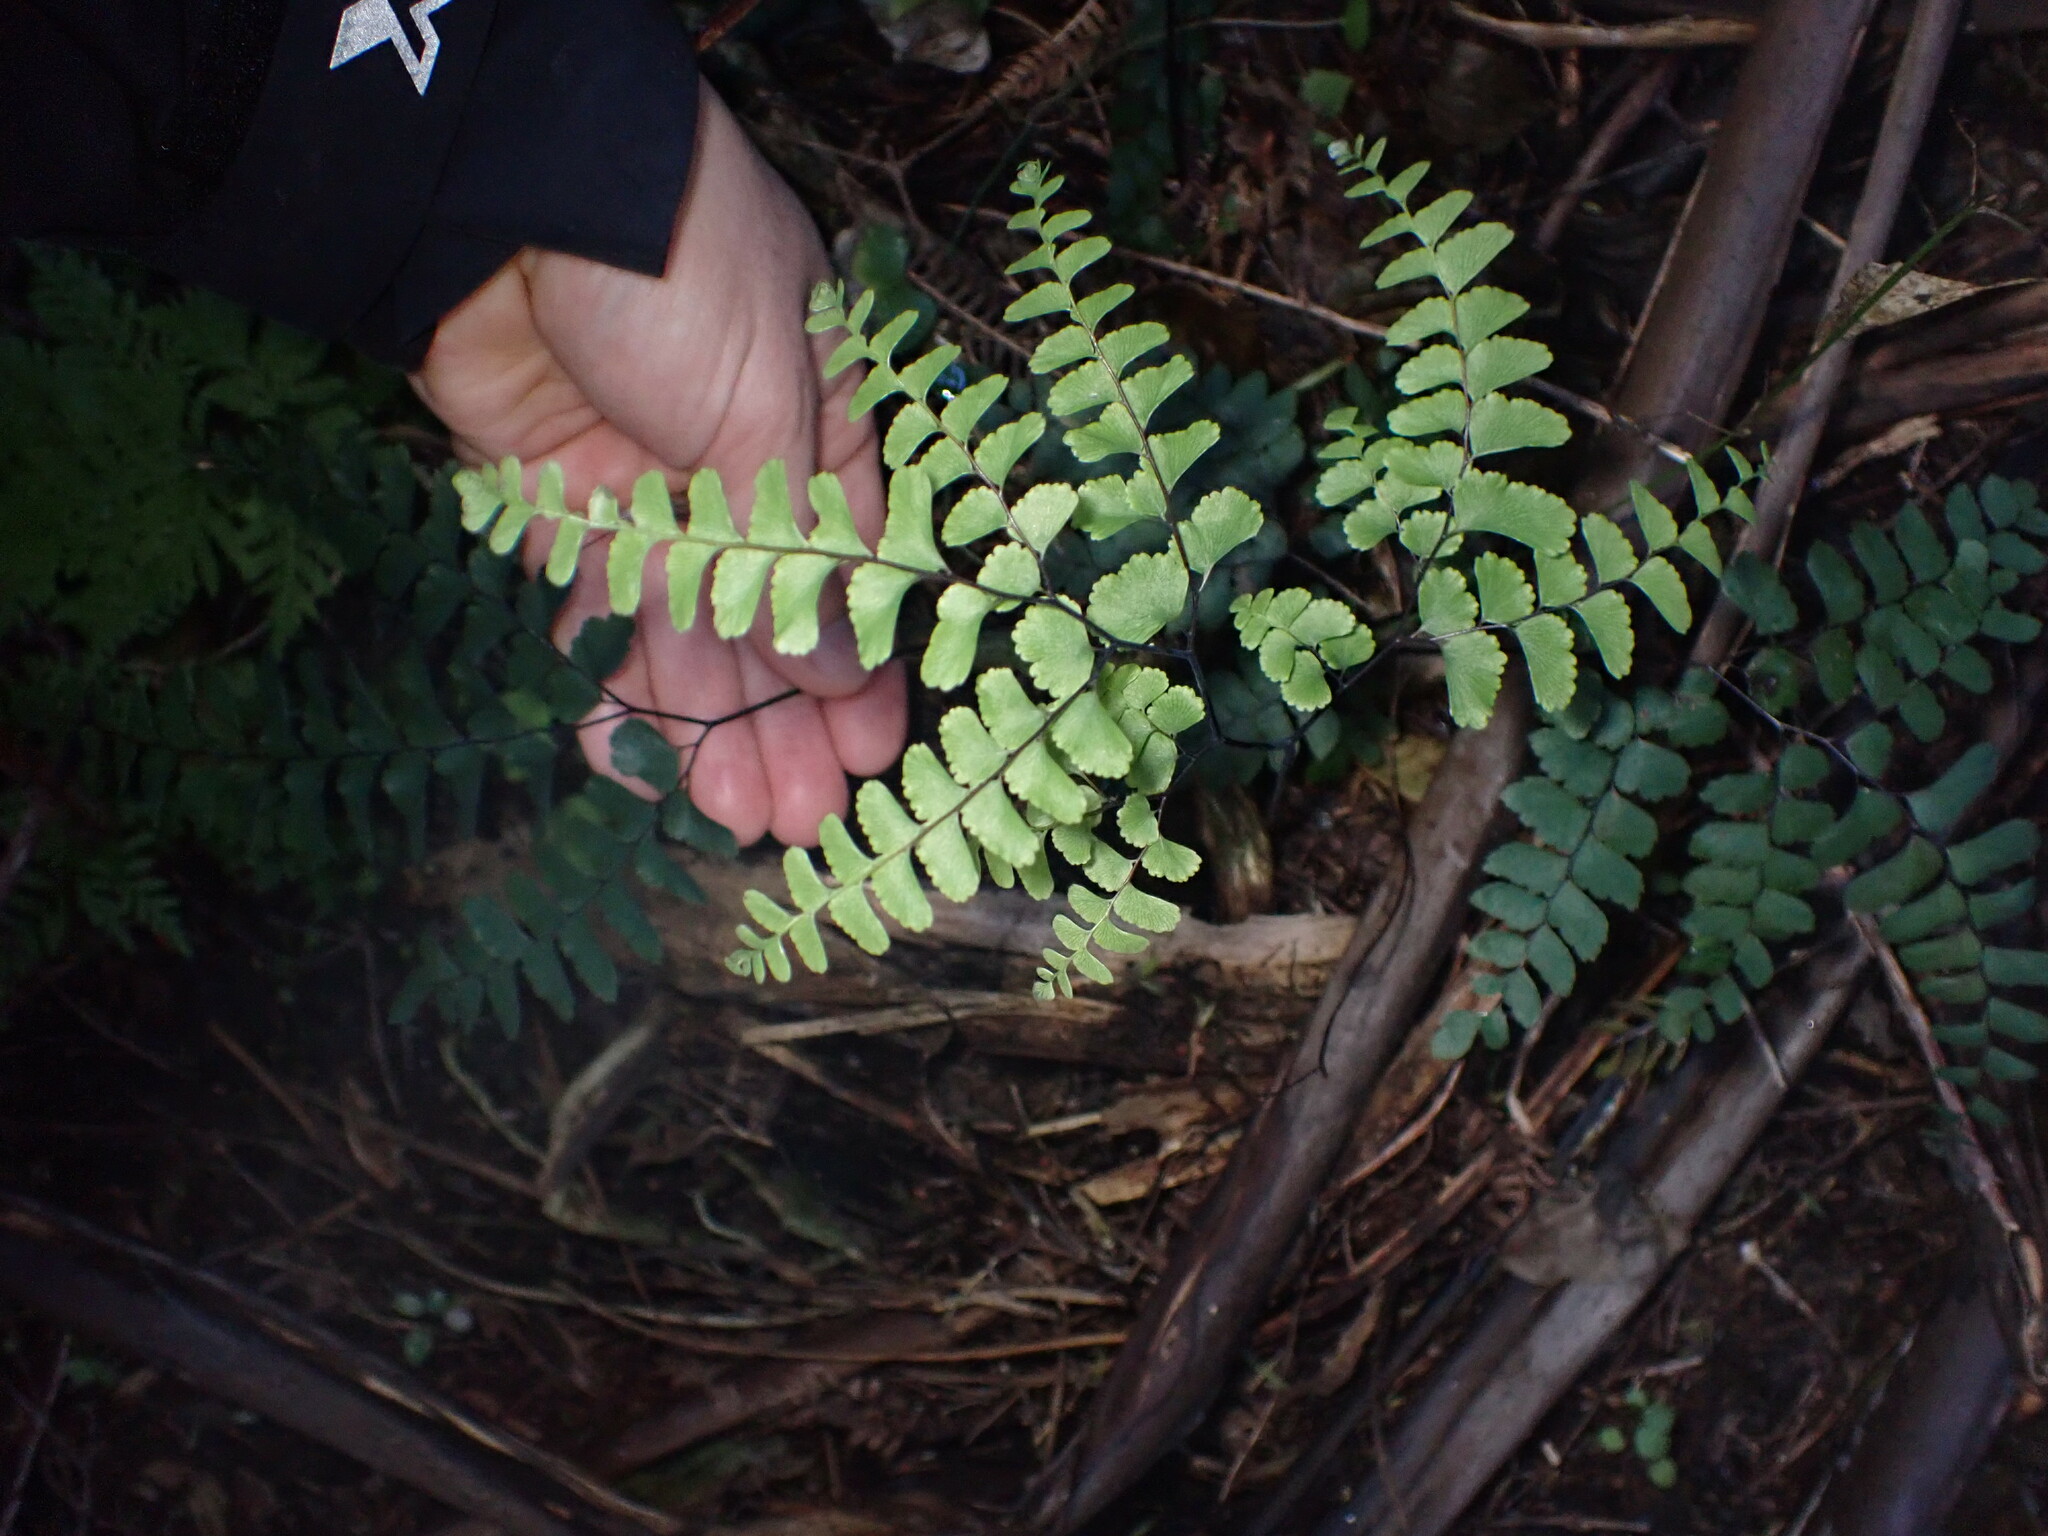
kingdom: Plantae
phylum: Tracheophyta
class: Polypodiopsida
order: Polypodiales
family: Pteridaceae
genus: Adiantum
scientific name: Adiantum cunninghamii
